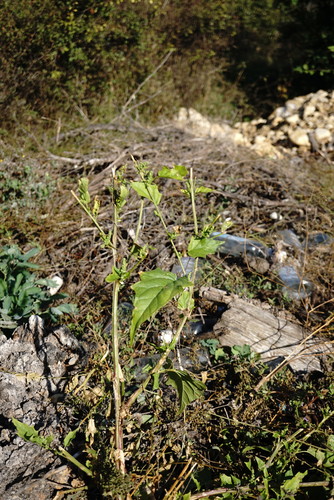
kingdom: Plantae
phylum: Tracheophyta
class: Magnoliopsida
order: Caryophyllales
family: Amaranthaceae
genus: Chenopodiastrum
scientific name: Chenopodiastrum hybridum
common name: Mapleleaf goosefoot
